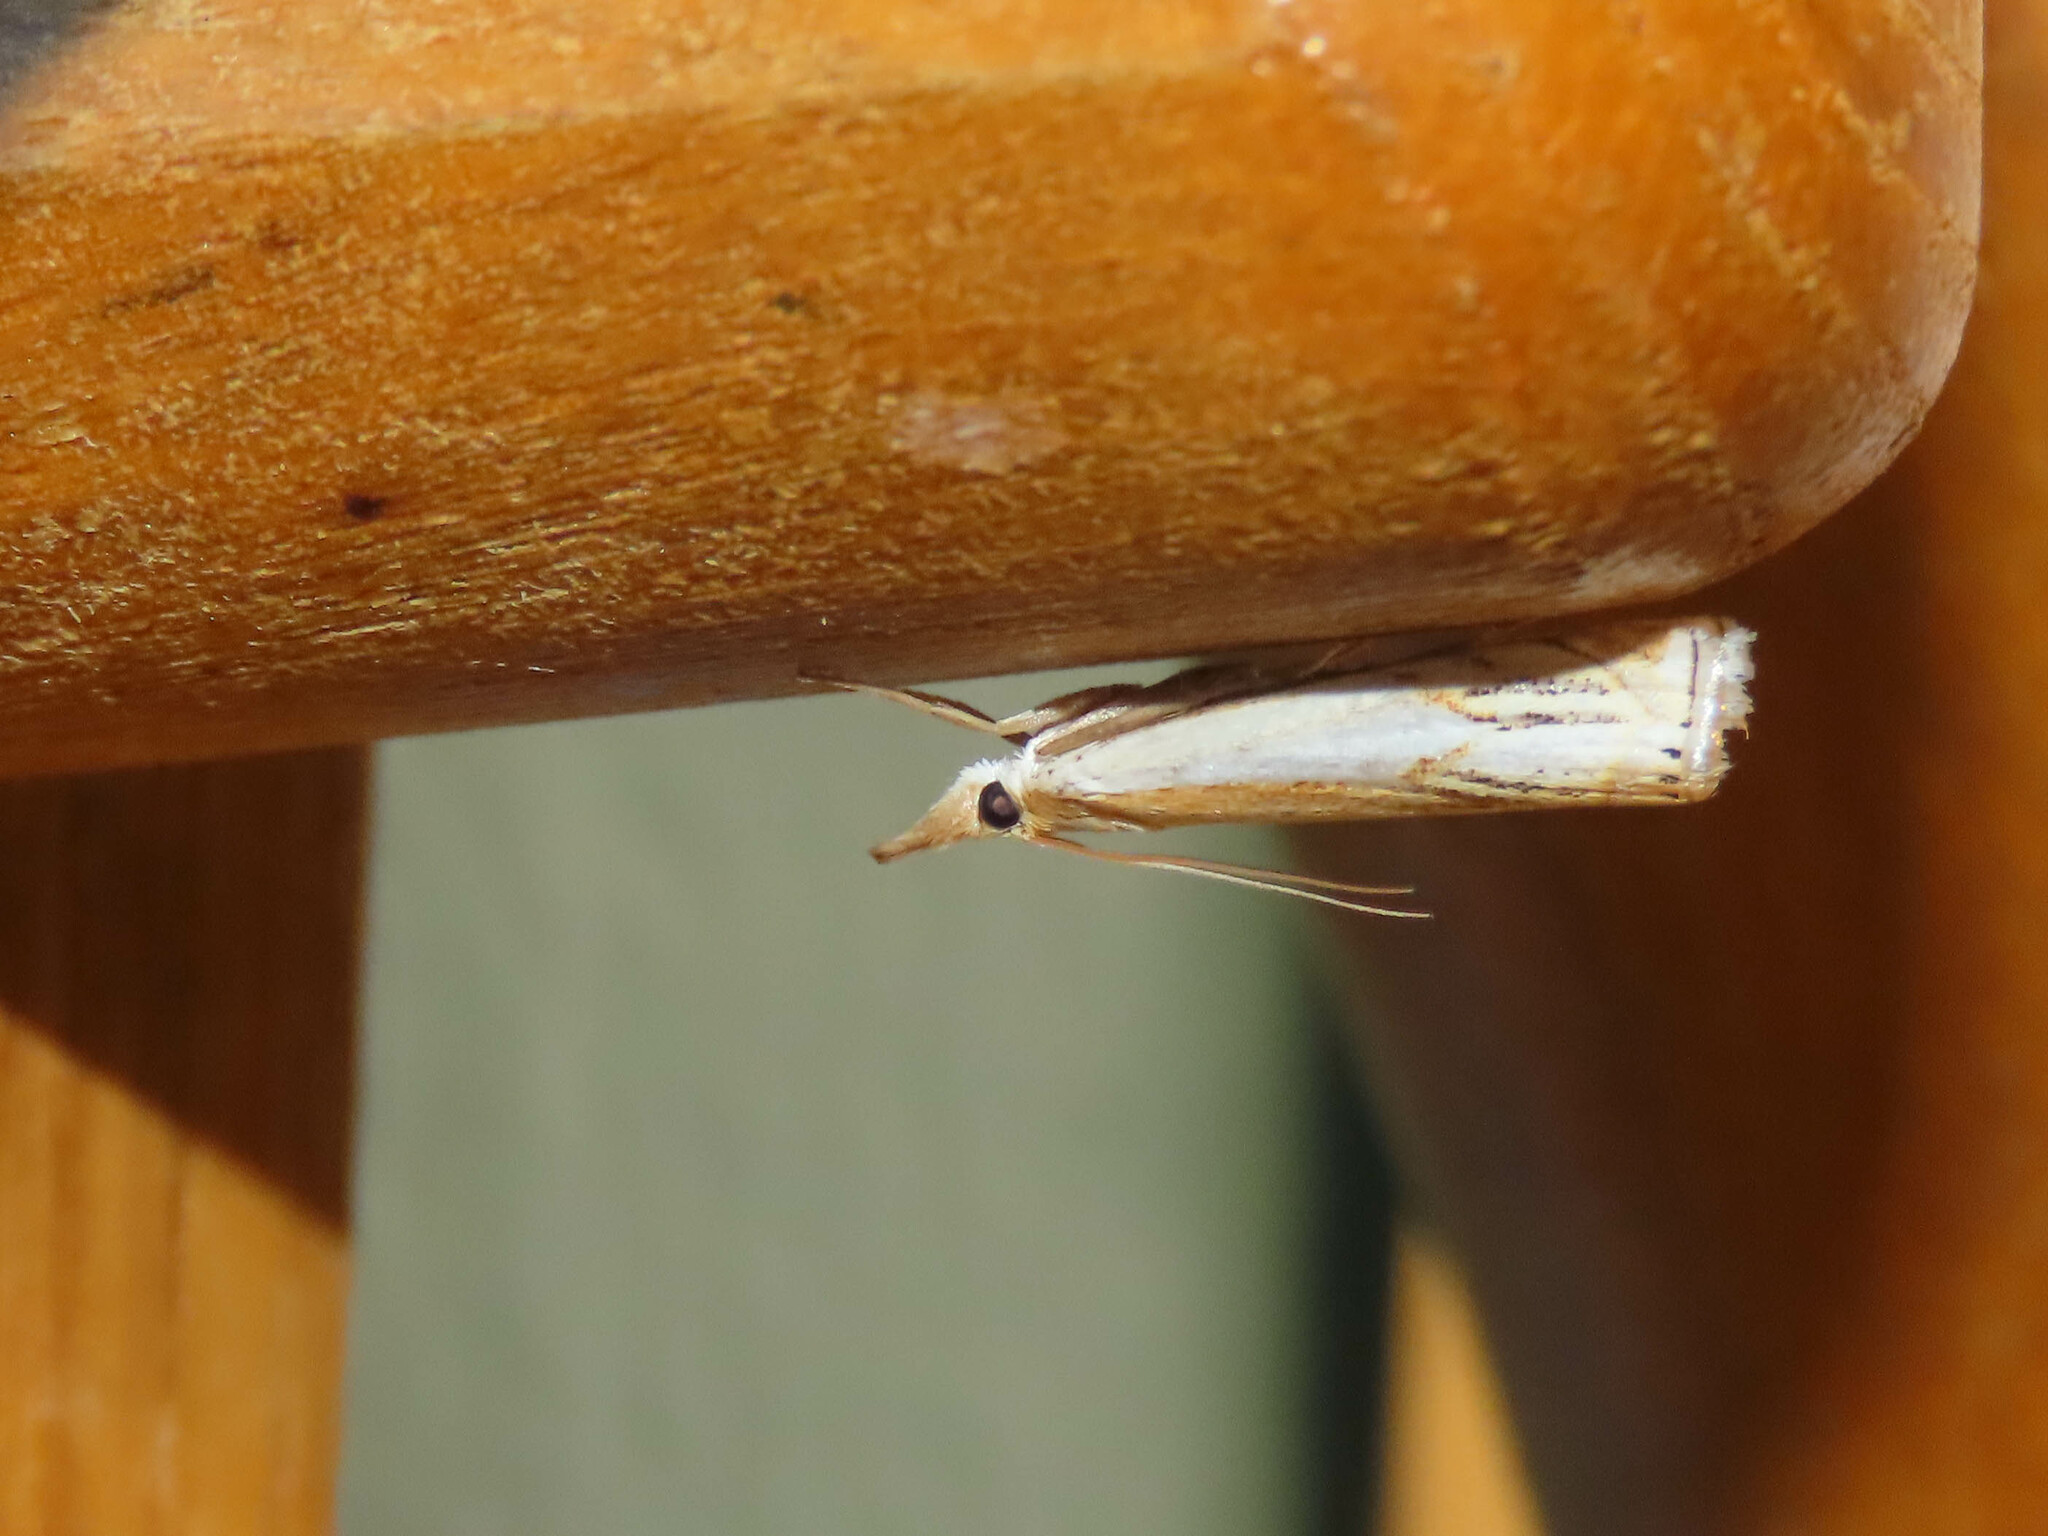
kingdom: Animalia
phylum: Arthropoda
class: Insecta
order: Lepidoptera
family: Crambidae
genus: Crambus
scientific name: Crambus agitatellus
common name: Double-banded grass-veneer
